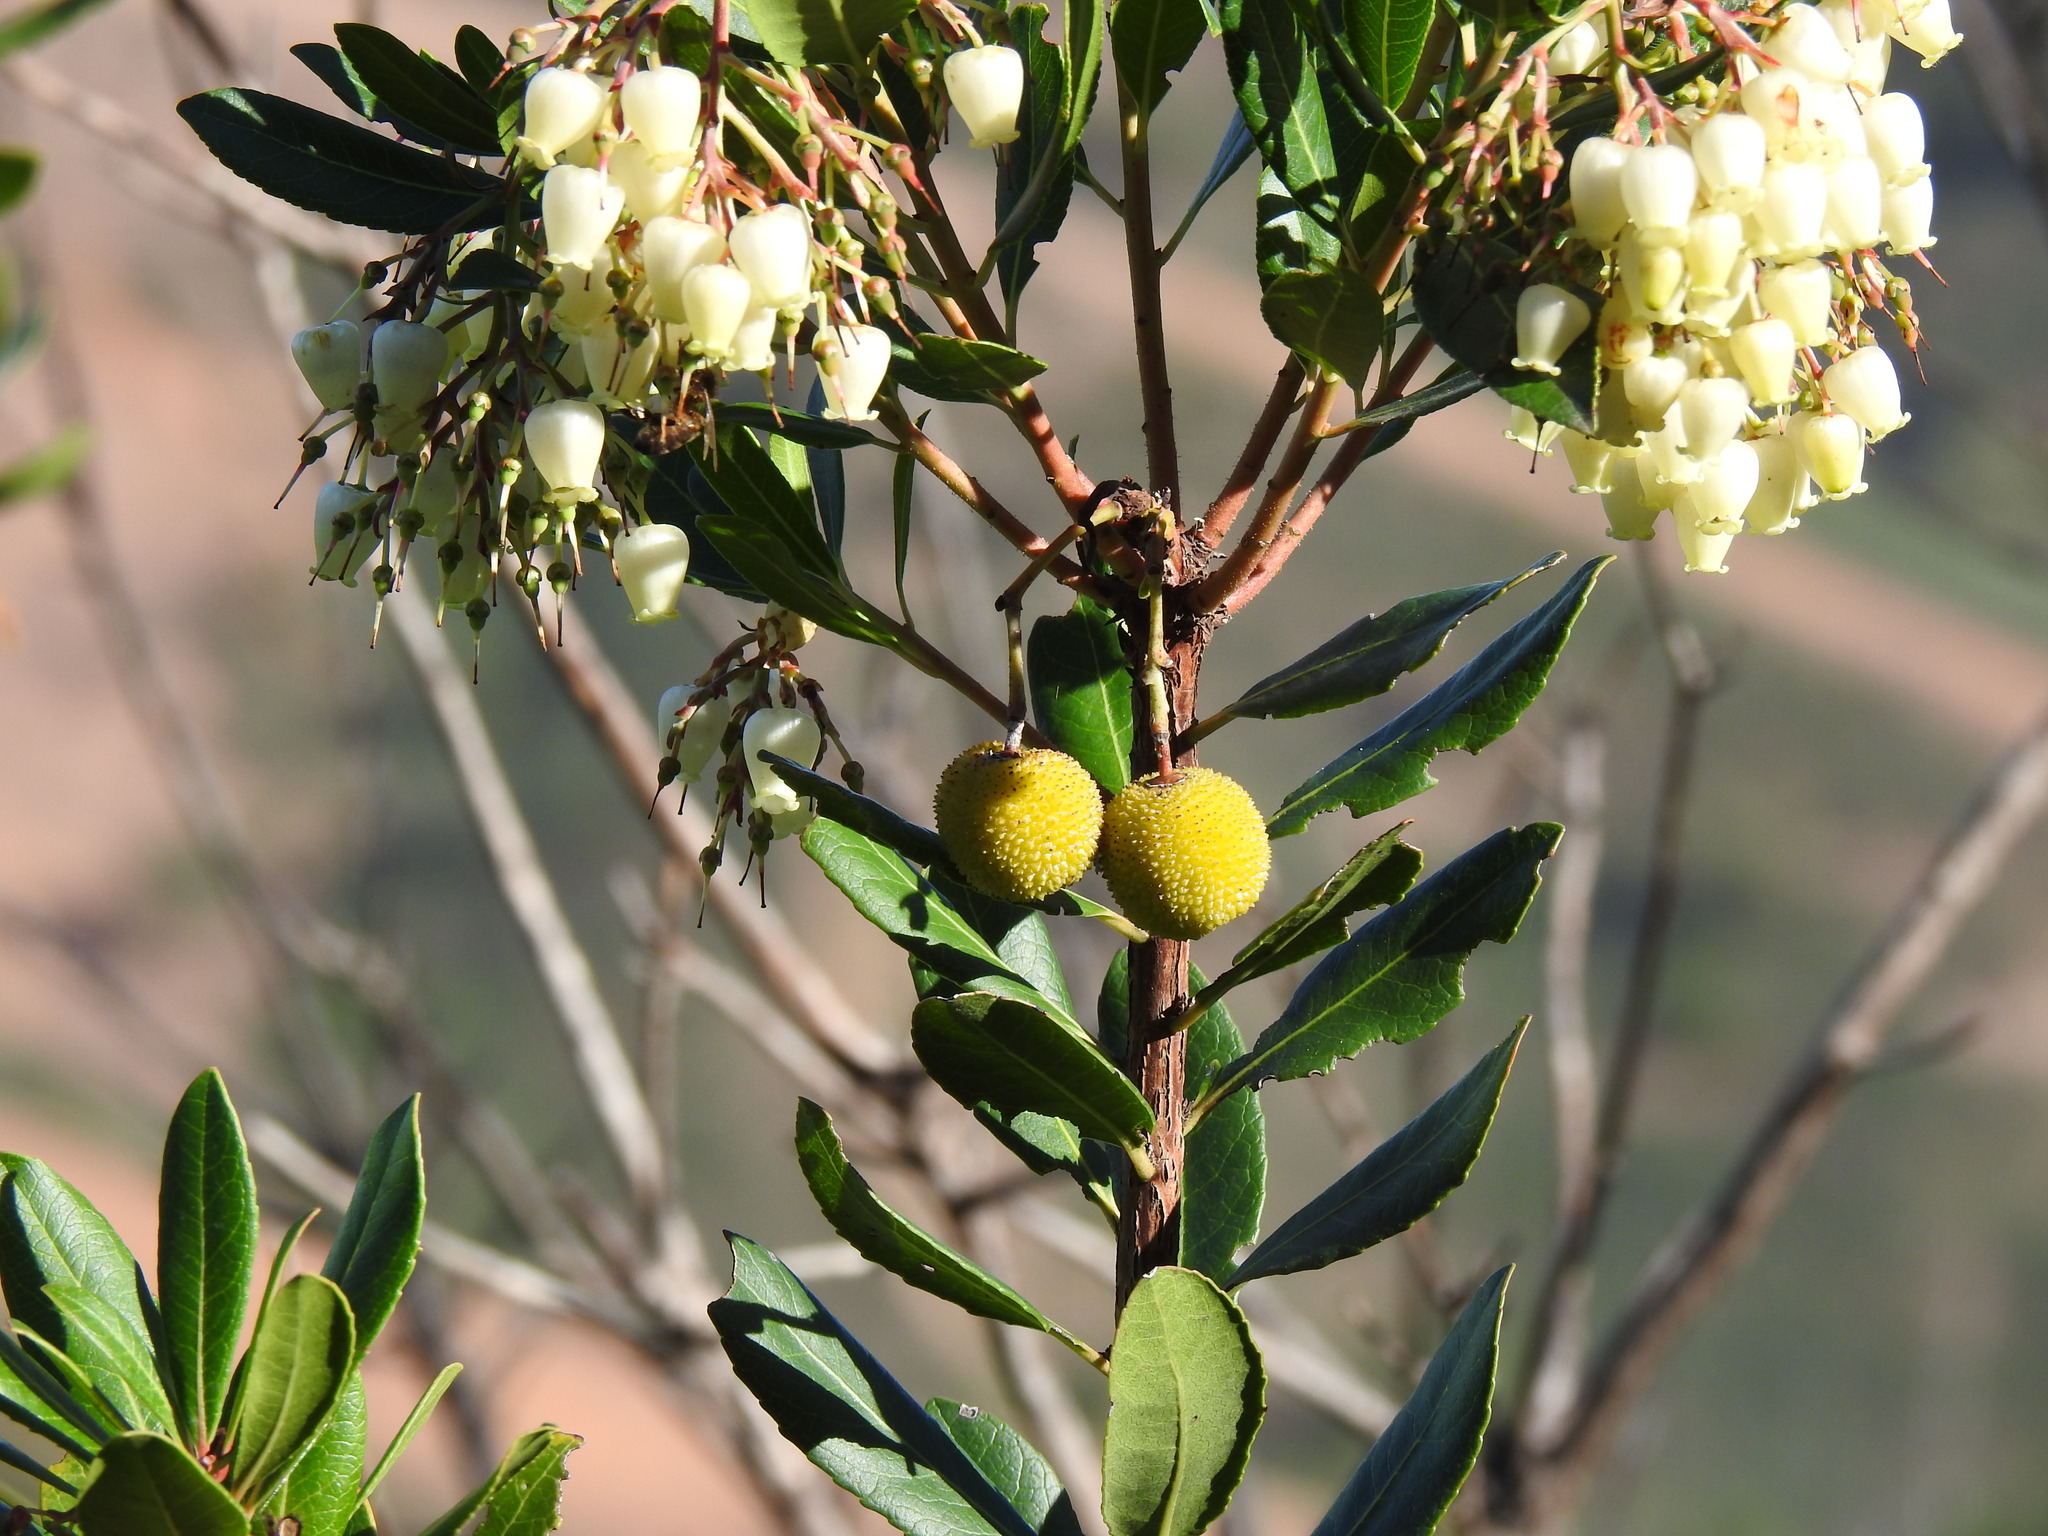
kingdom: Plantae
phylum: Tracheophyta
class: Magnoliopsida
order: Ericales
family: Ericaceae
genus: Arbutus
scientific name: Arbutus unedo
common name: Strawberry-tree
